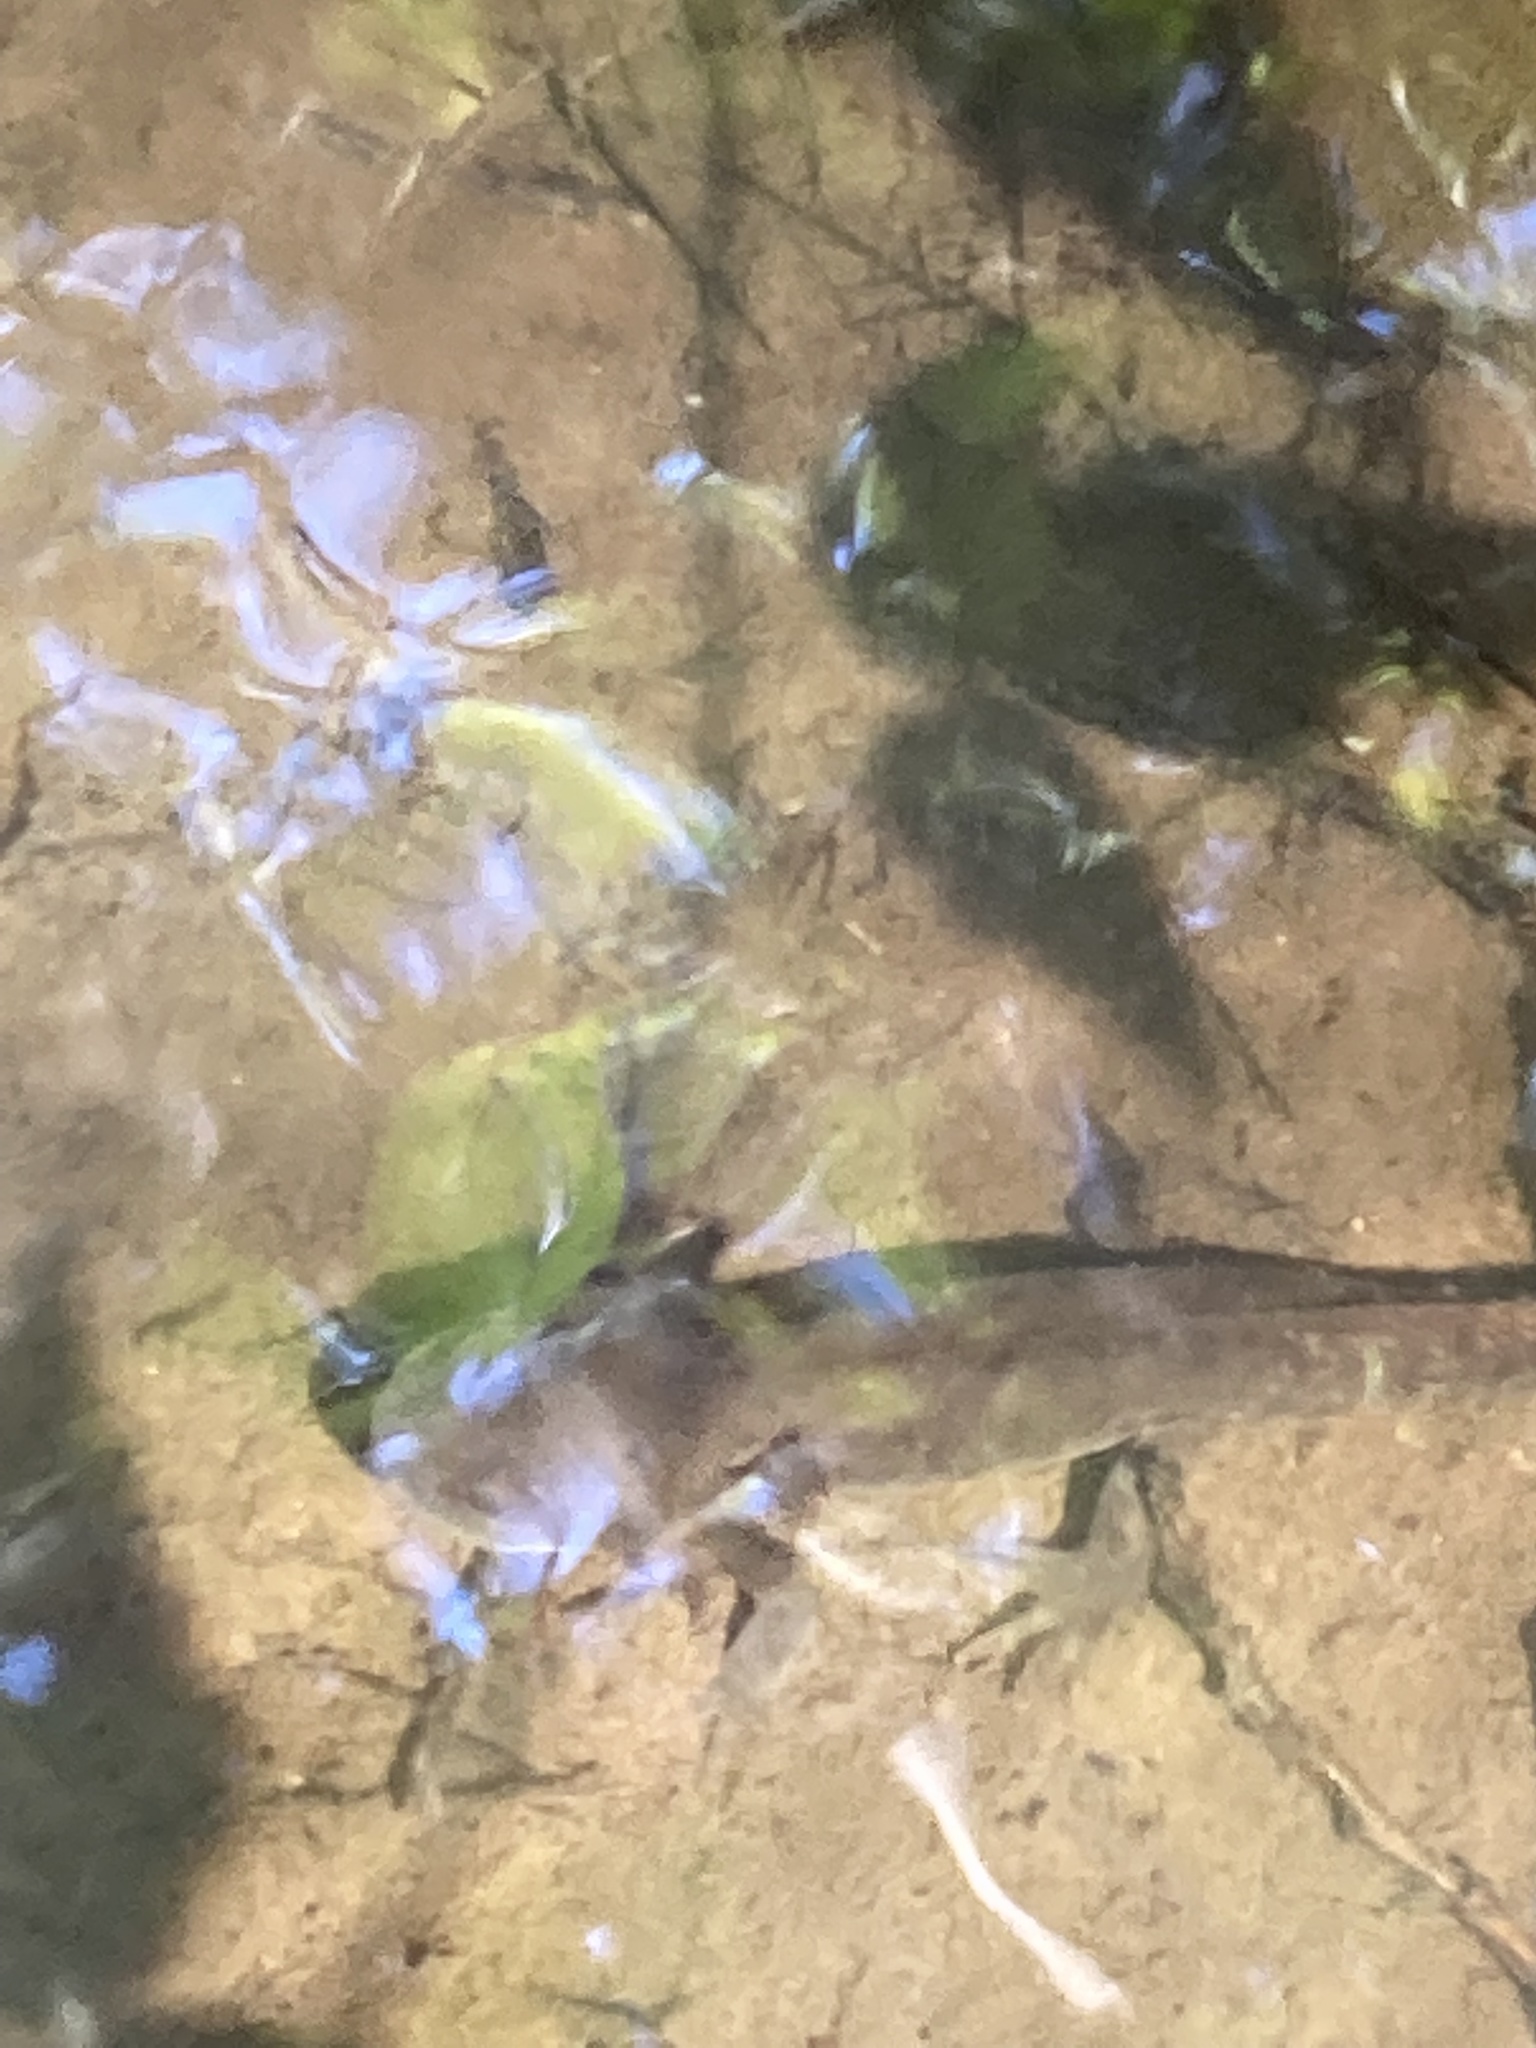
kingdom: Animalia
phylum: Chordata
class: Amphibia
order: Caudata
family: Ambystomatidae
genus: Ambystoma
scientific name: Ambystoma gracile
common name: Northwestern salamander
